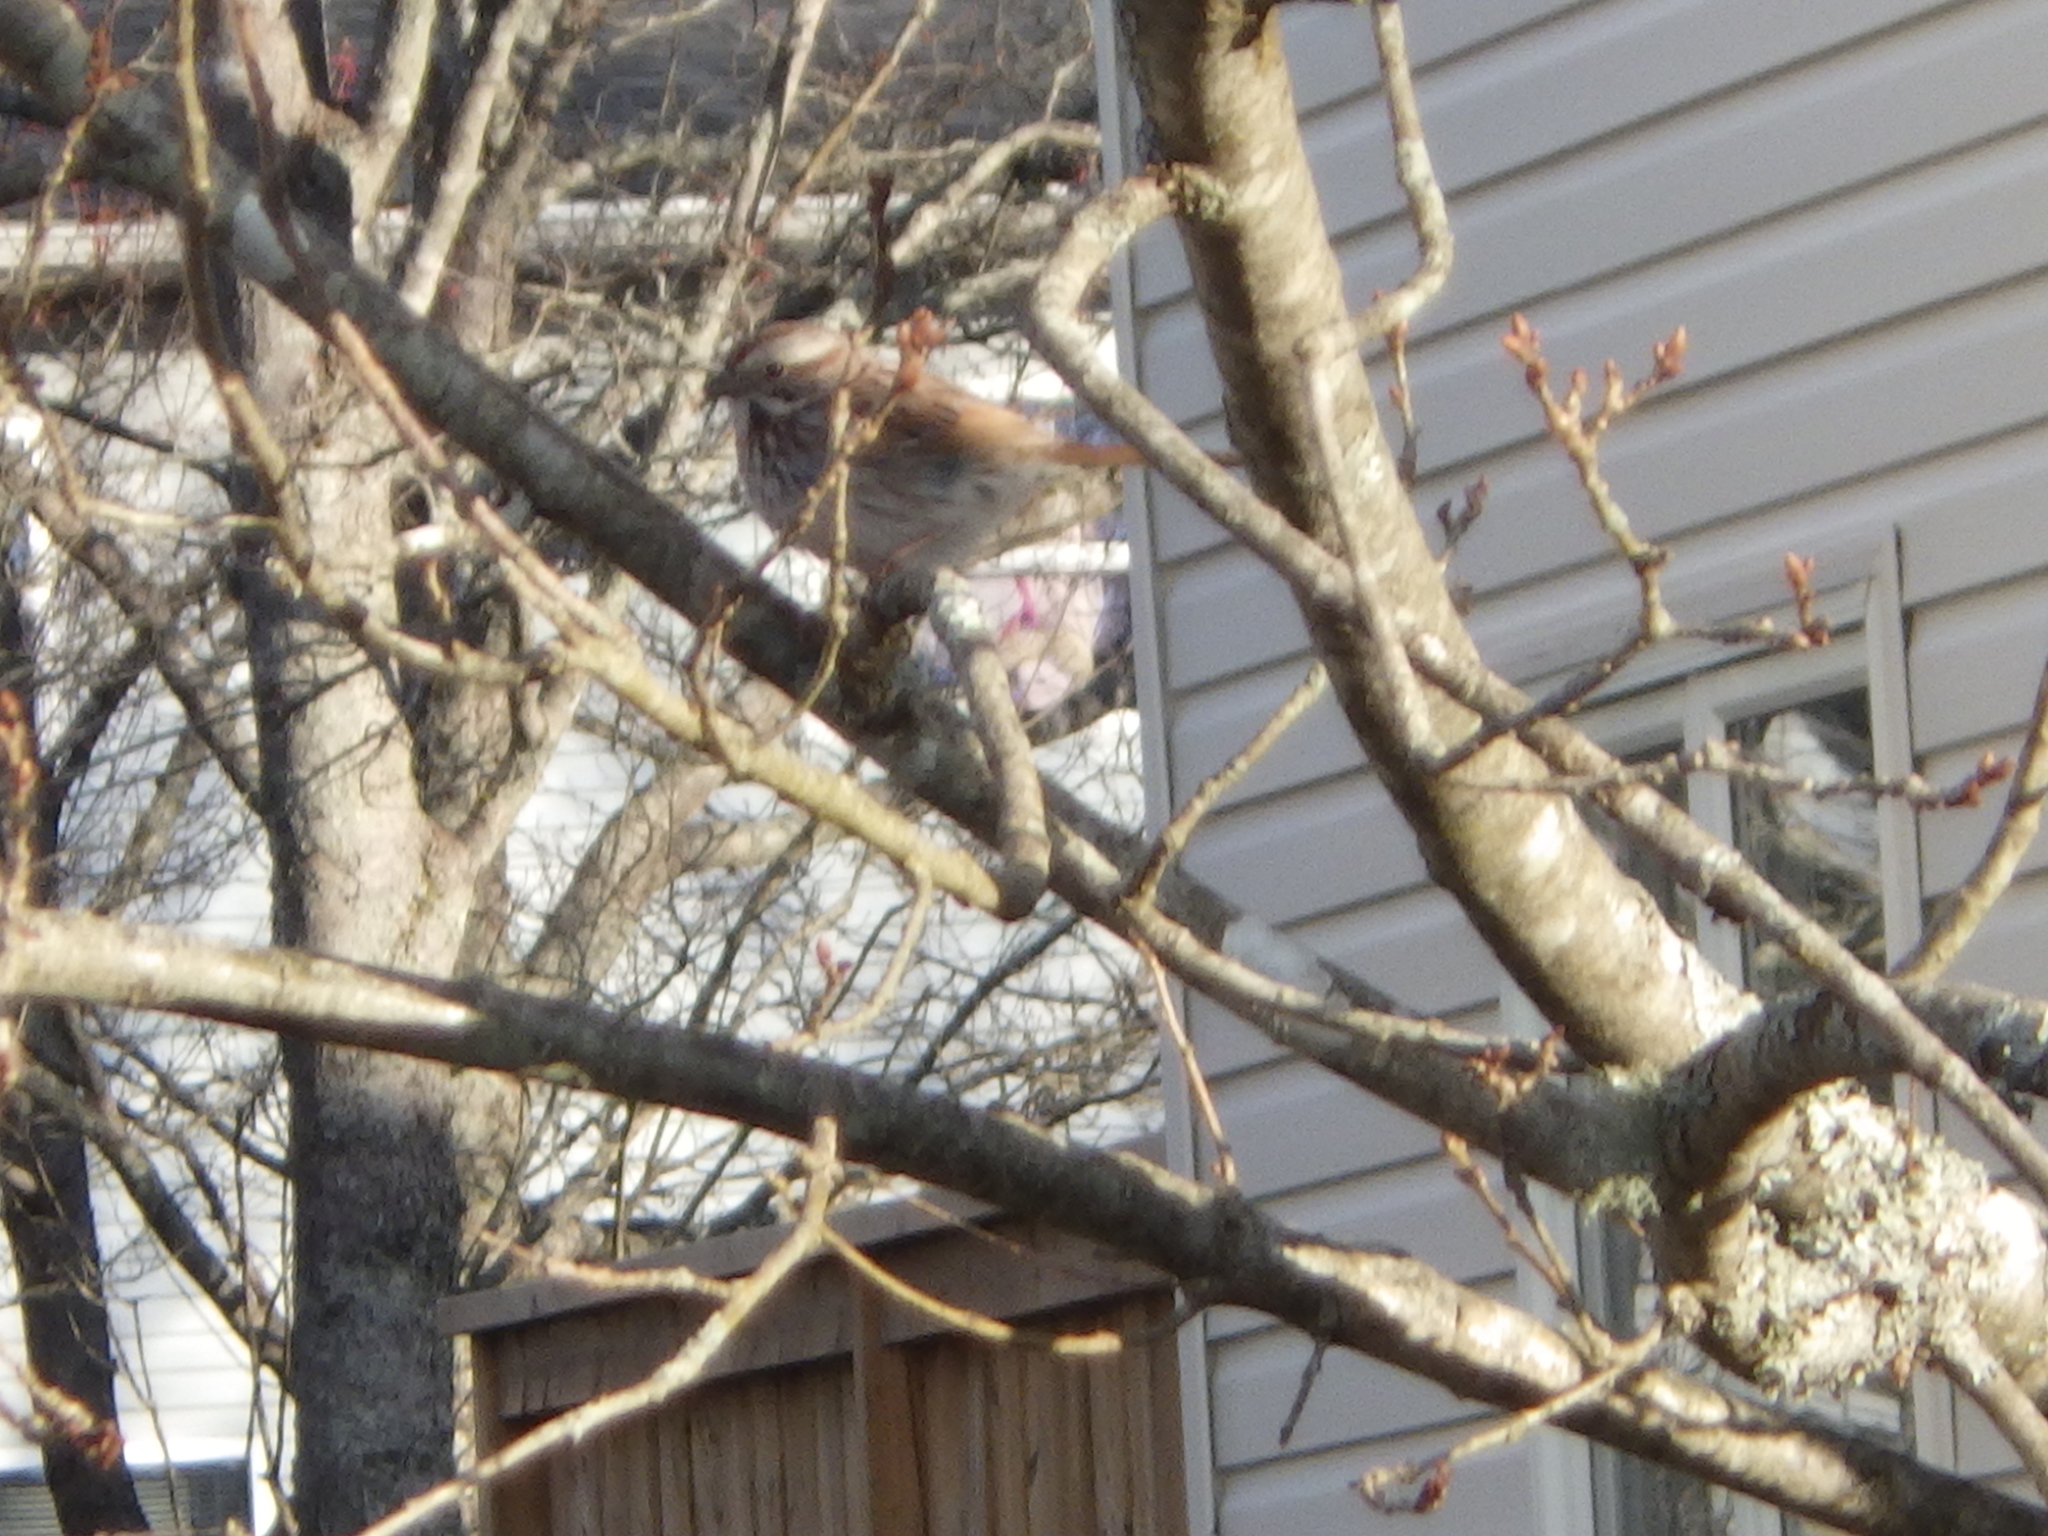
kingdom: Animalia
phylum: Chordata
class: Aves
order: Passeriformes
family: Passerellidae
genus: Melospiza
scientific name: Melospiza melodia
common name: Song sparrow
